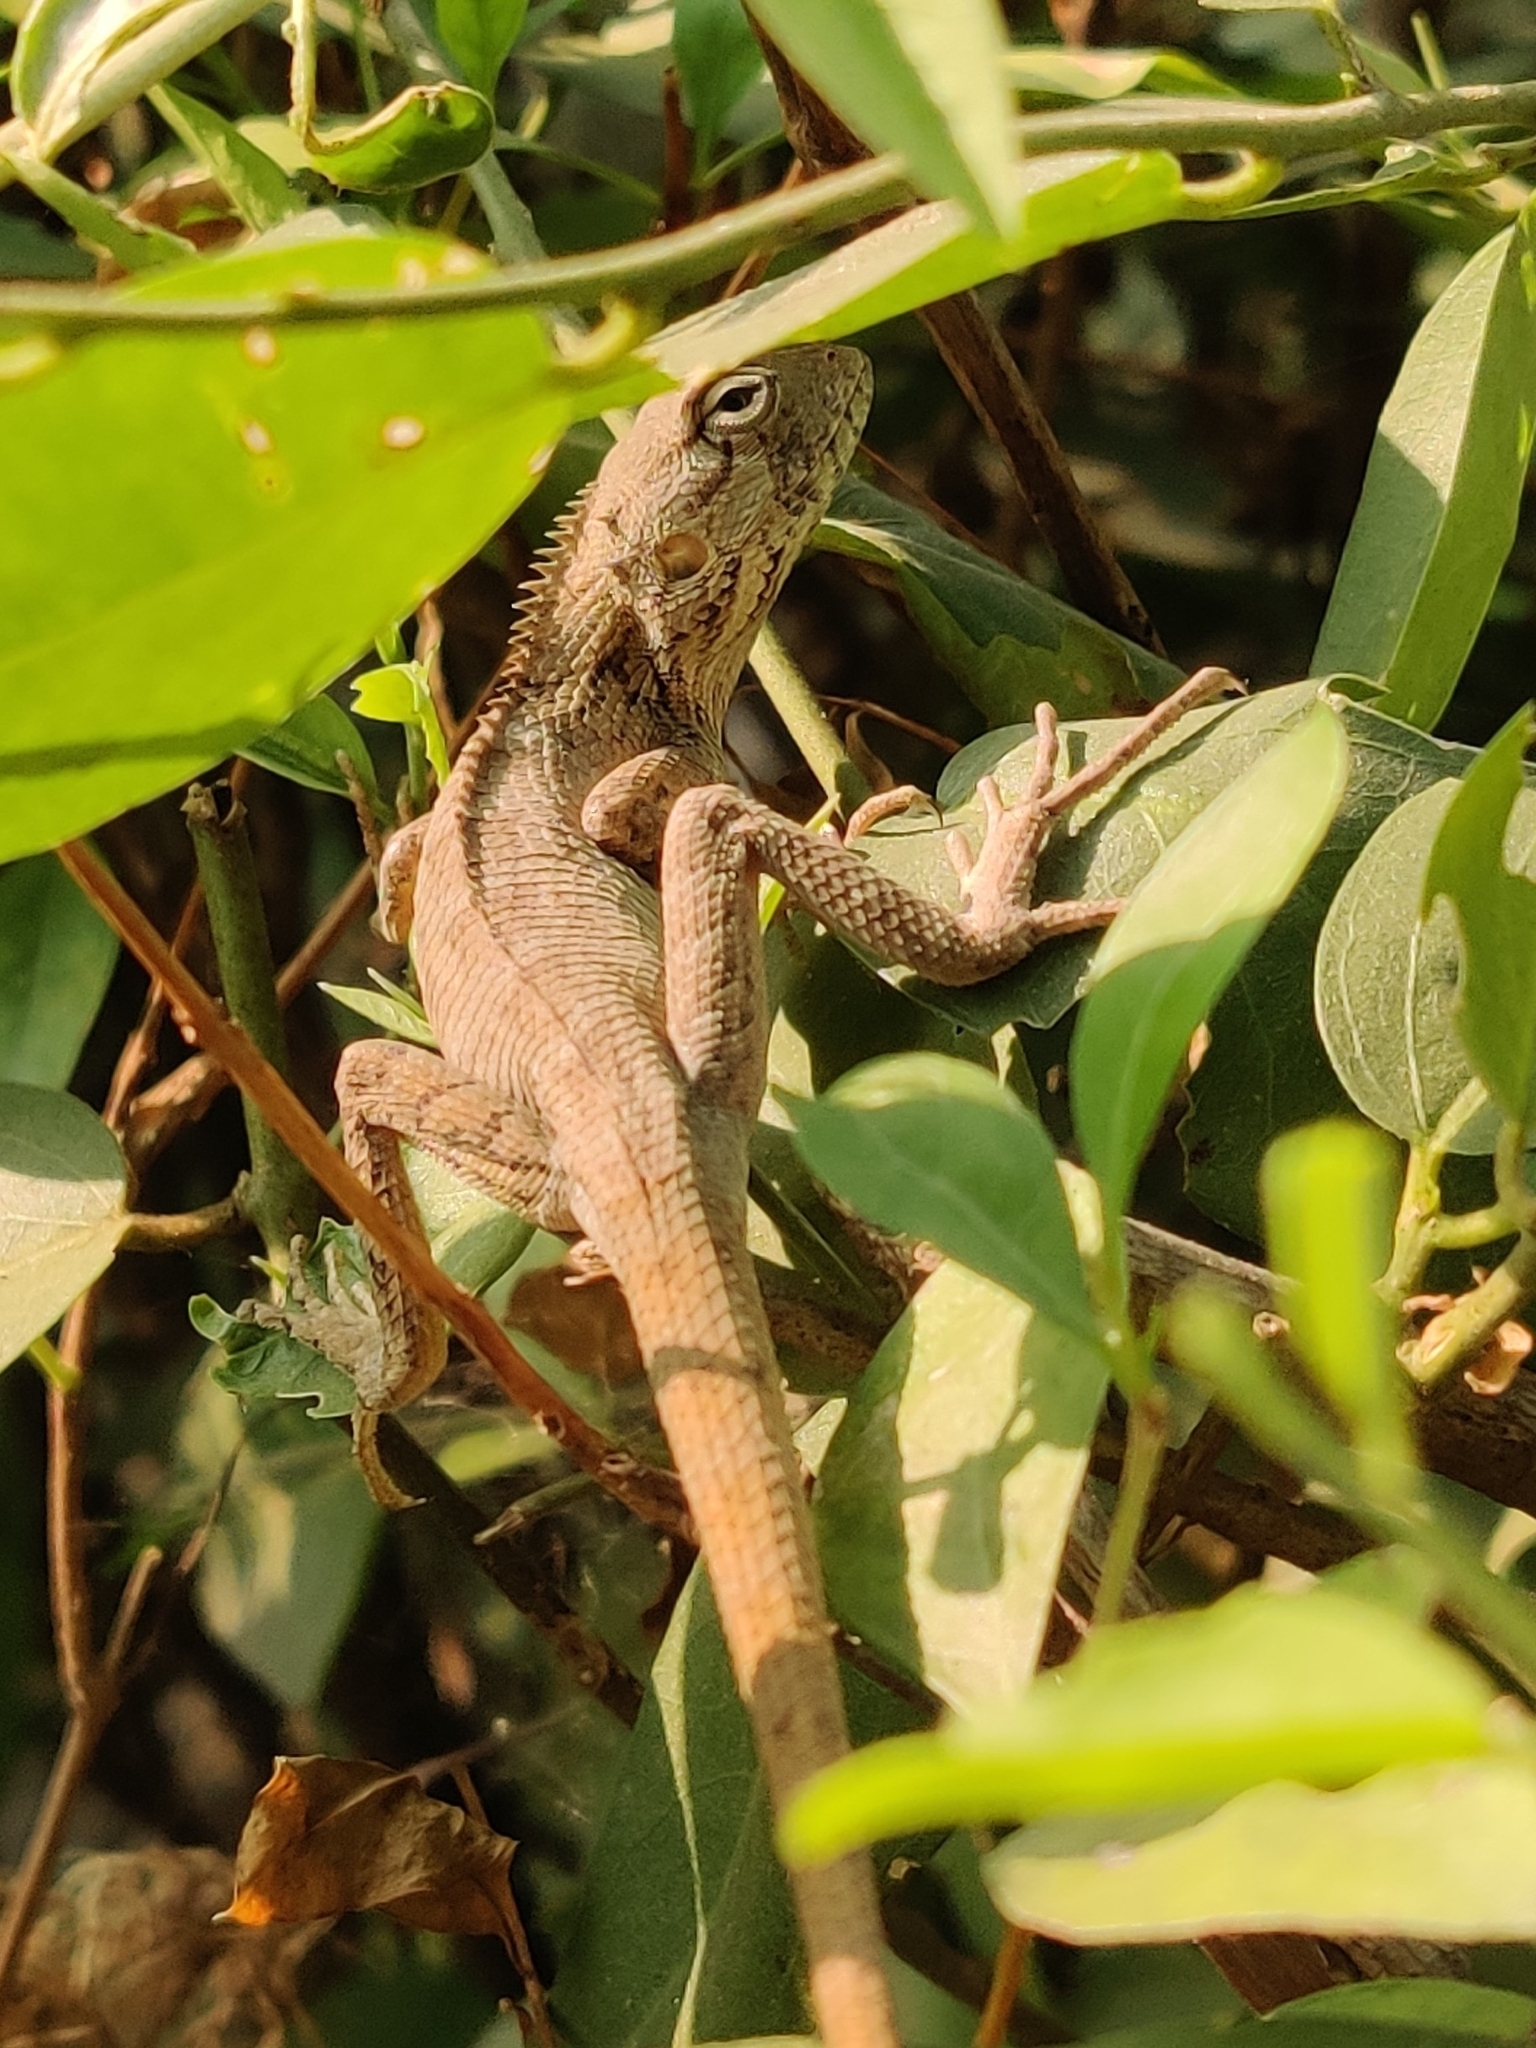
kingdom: Animalia
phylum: Chordata
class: Squamata
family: Agamidae
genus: Calotes
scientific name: Calotes versicolor
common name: Oriental garden lizard
